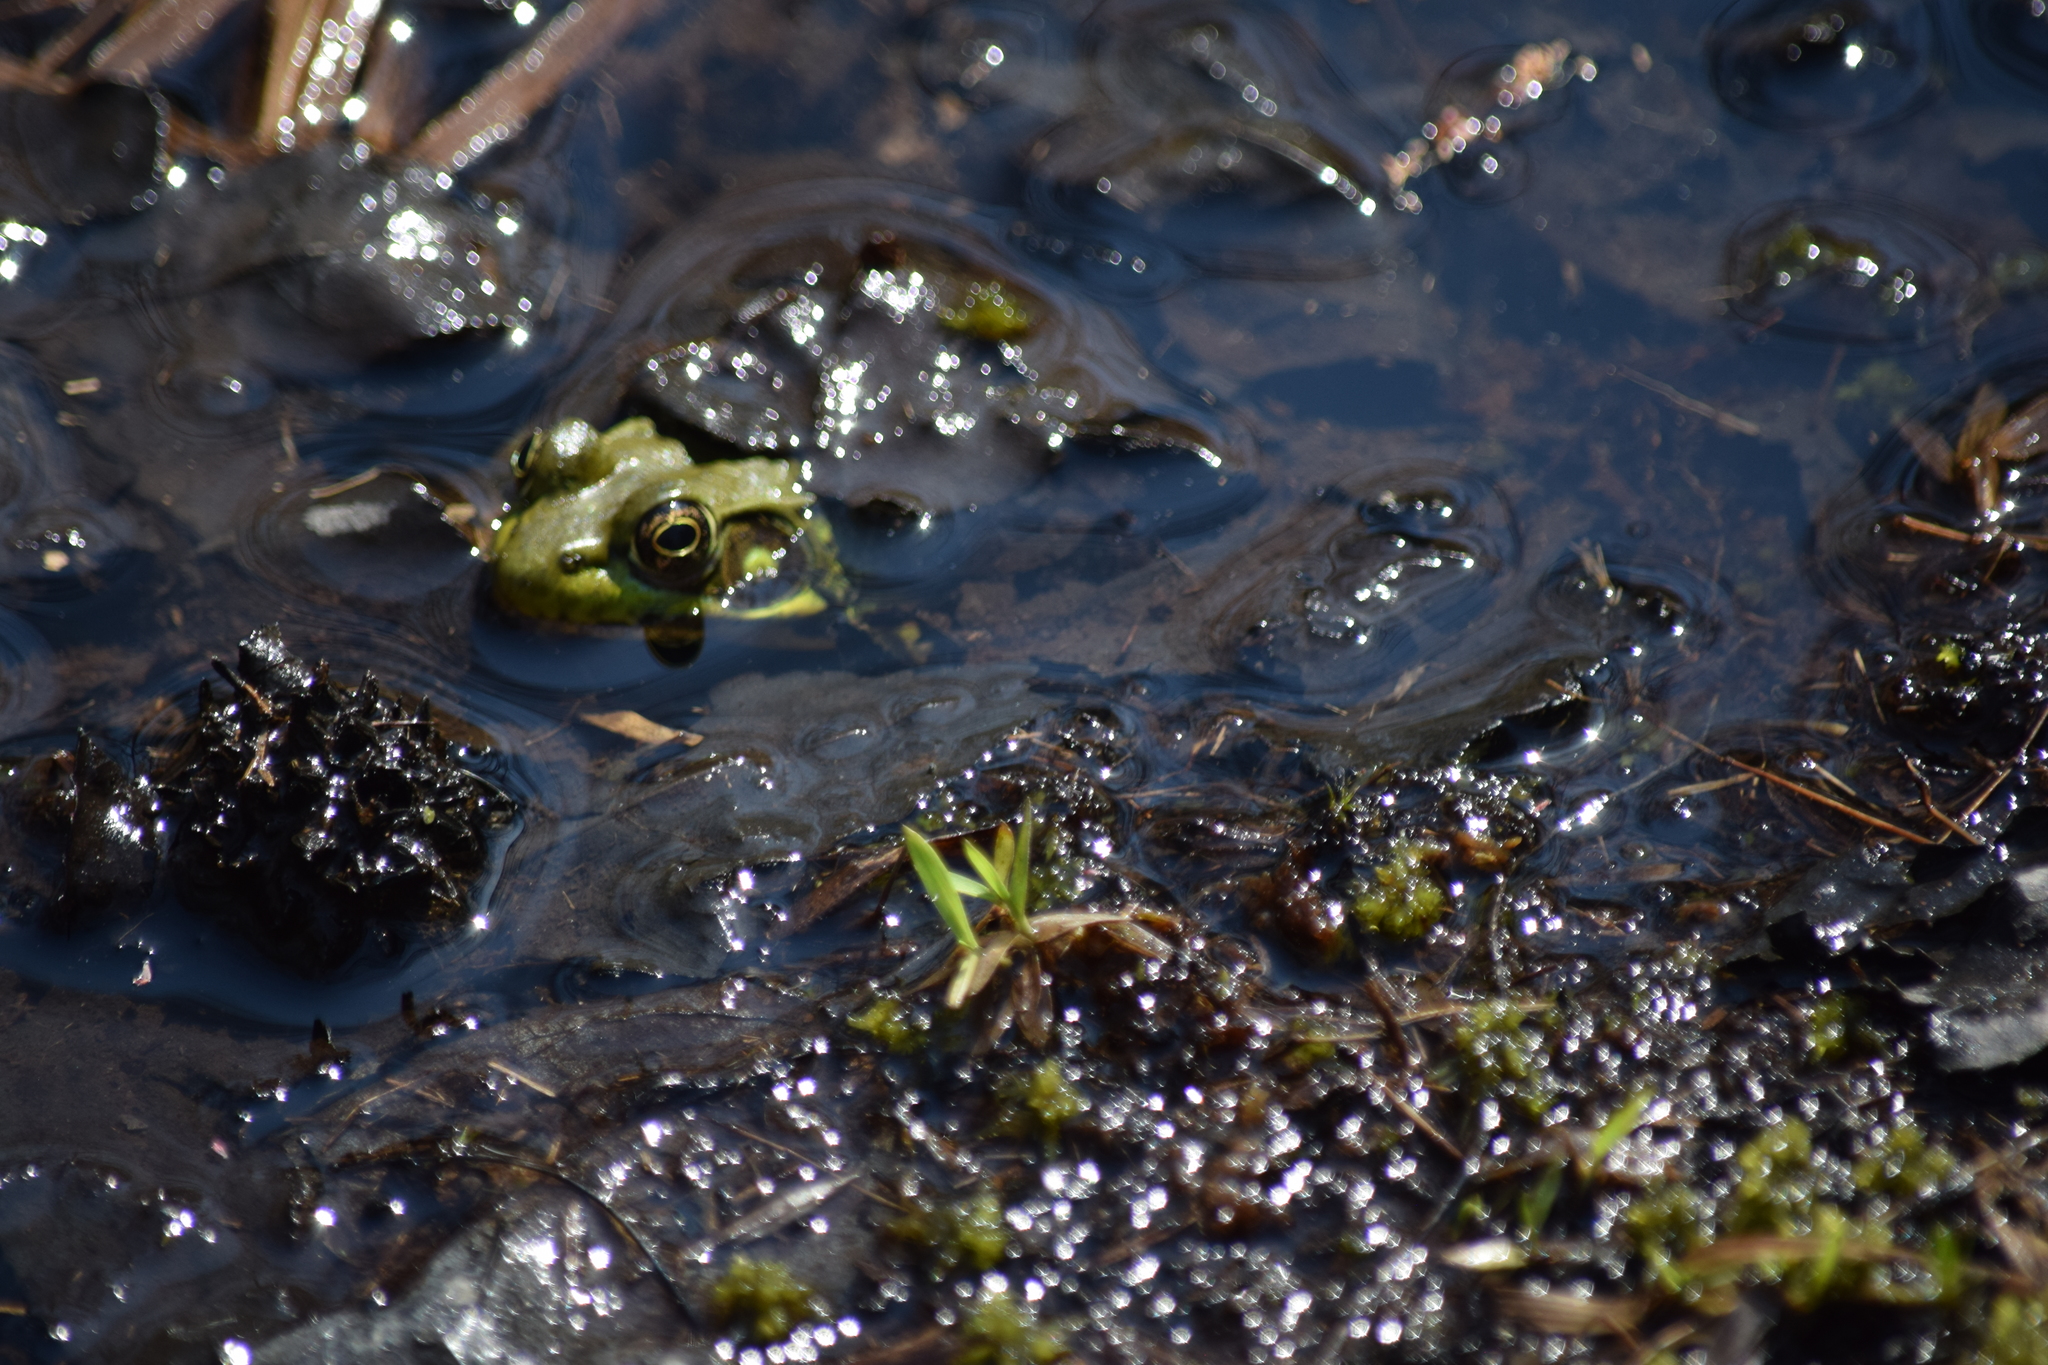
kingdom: Animalia
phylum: Chordata
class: Amphibia
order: Anura
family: Ranidae
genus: Lithobates
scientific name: Lithobates clamitans
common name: Green frog
